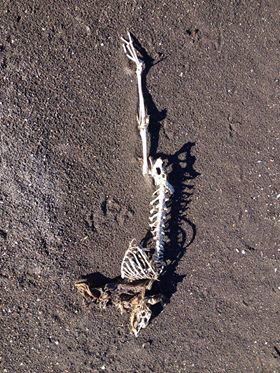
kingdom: Animalia
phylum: Chordata
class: Mammalia
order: Lagomorpha
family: Leporidae
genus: Lepus
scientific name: Lepus europaeus
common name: European hare
